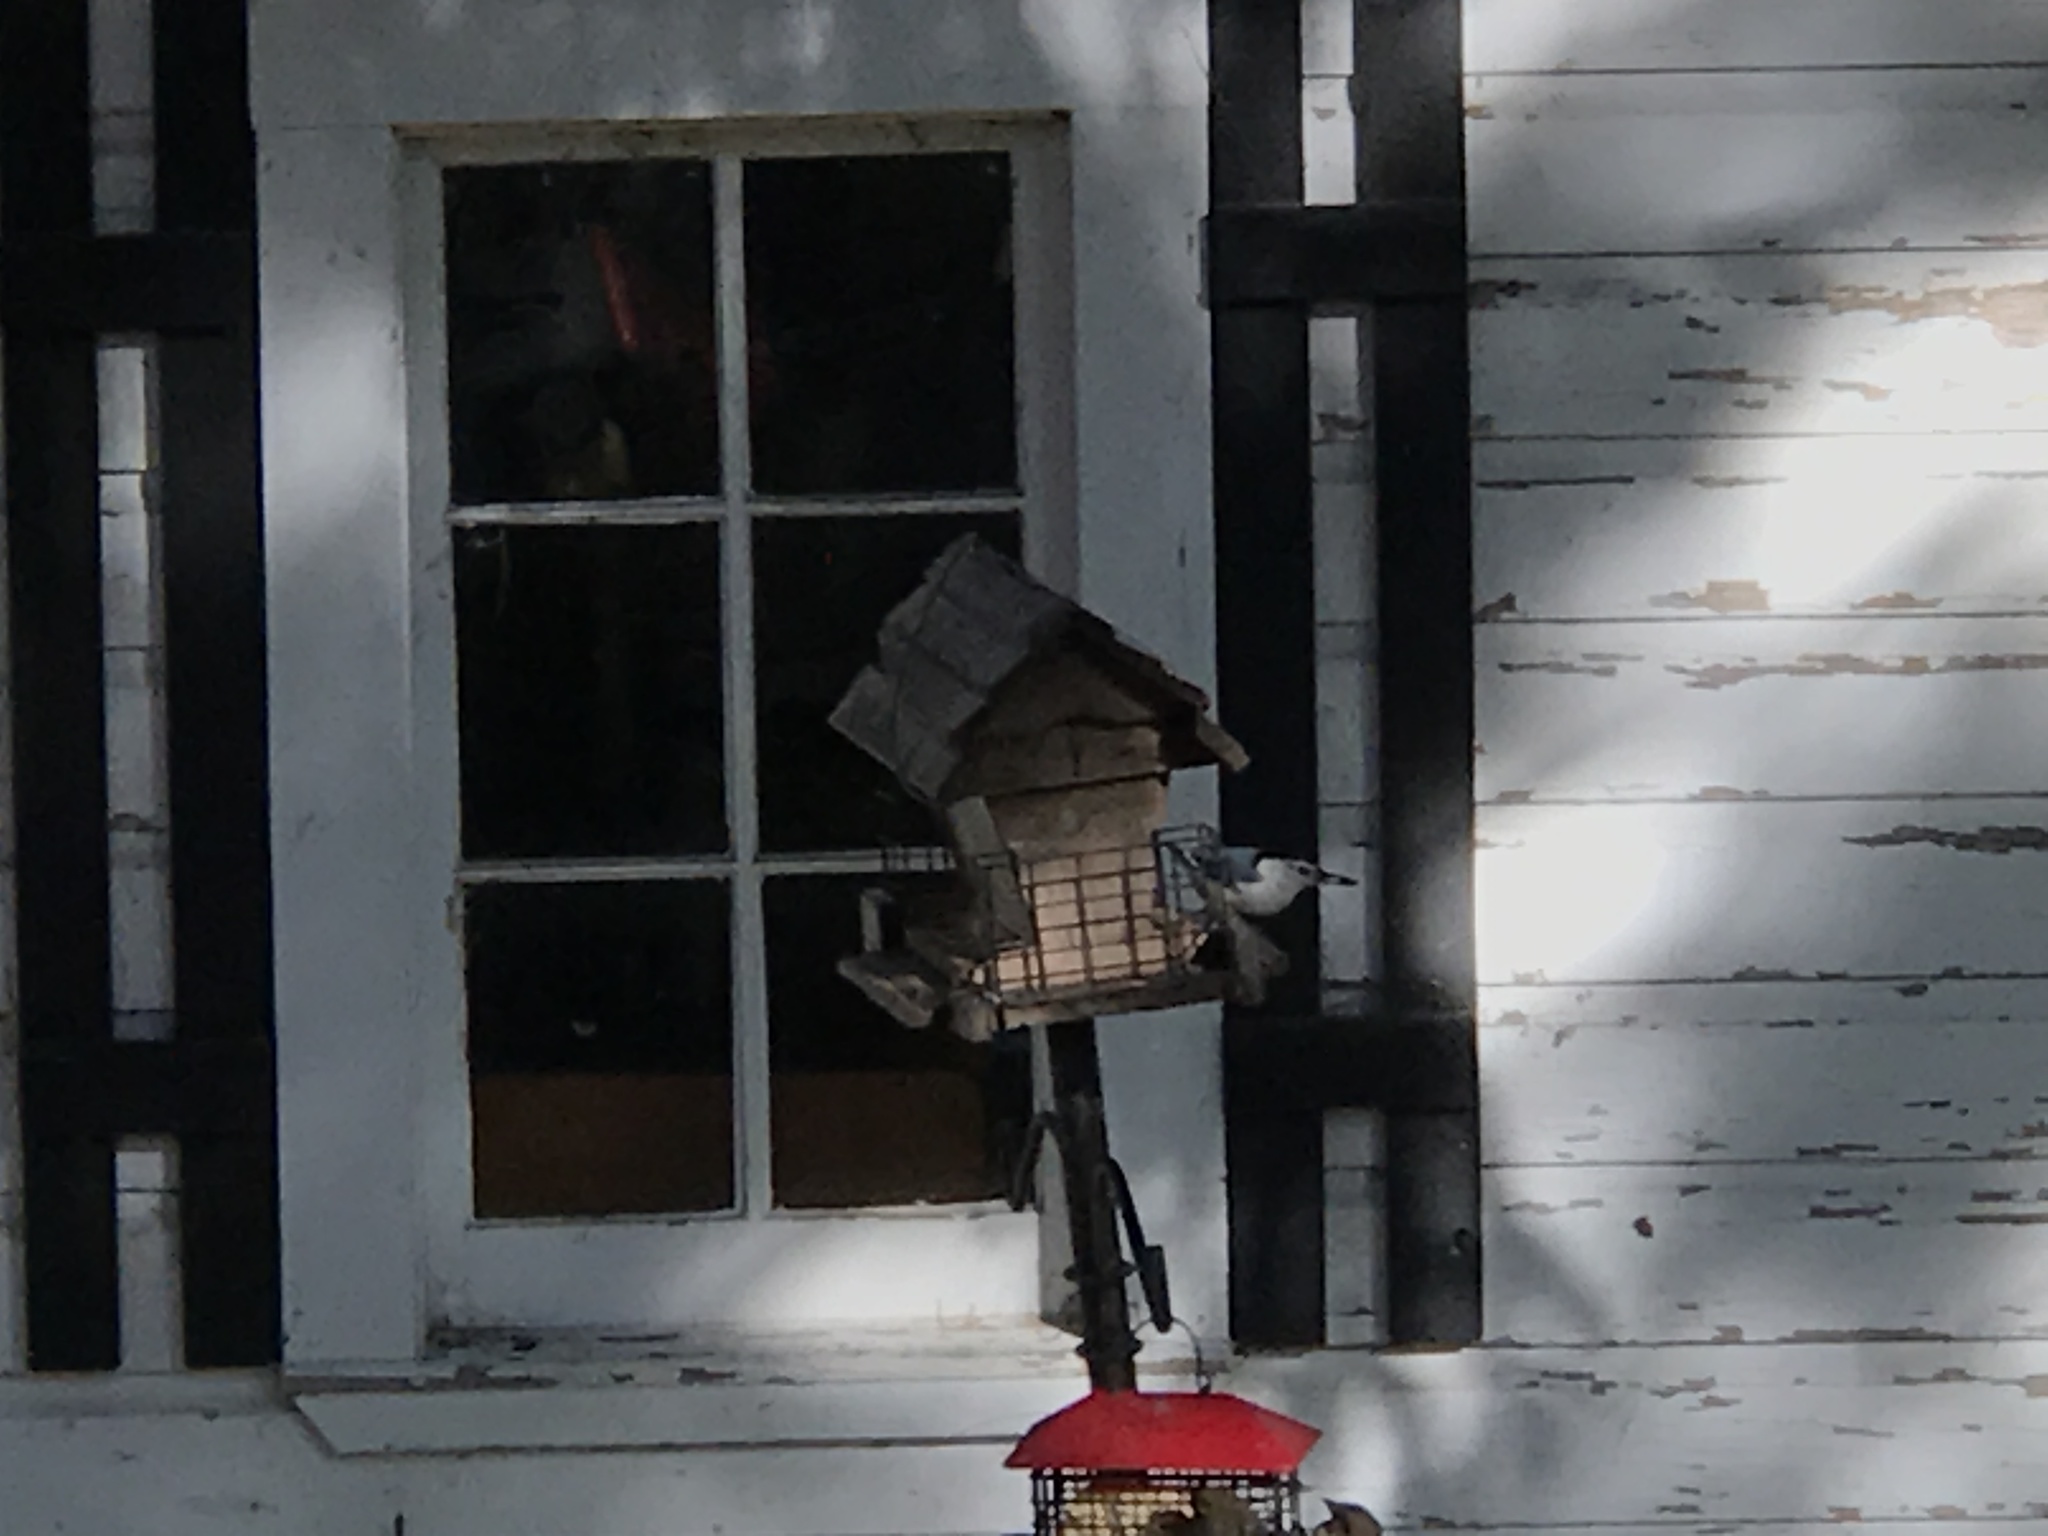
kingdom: Animalia
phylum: Chordata
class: Aves
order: Passeriformes
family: Sittidae
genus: Sitta
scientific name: Sitta carolinensis
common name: White-breasted nuthatch
